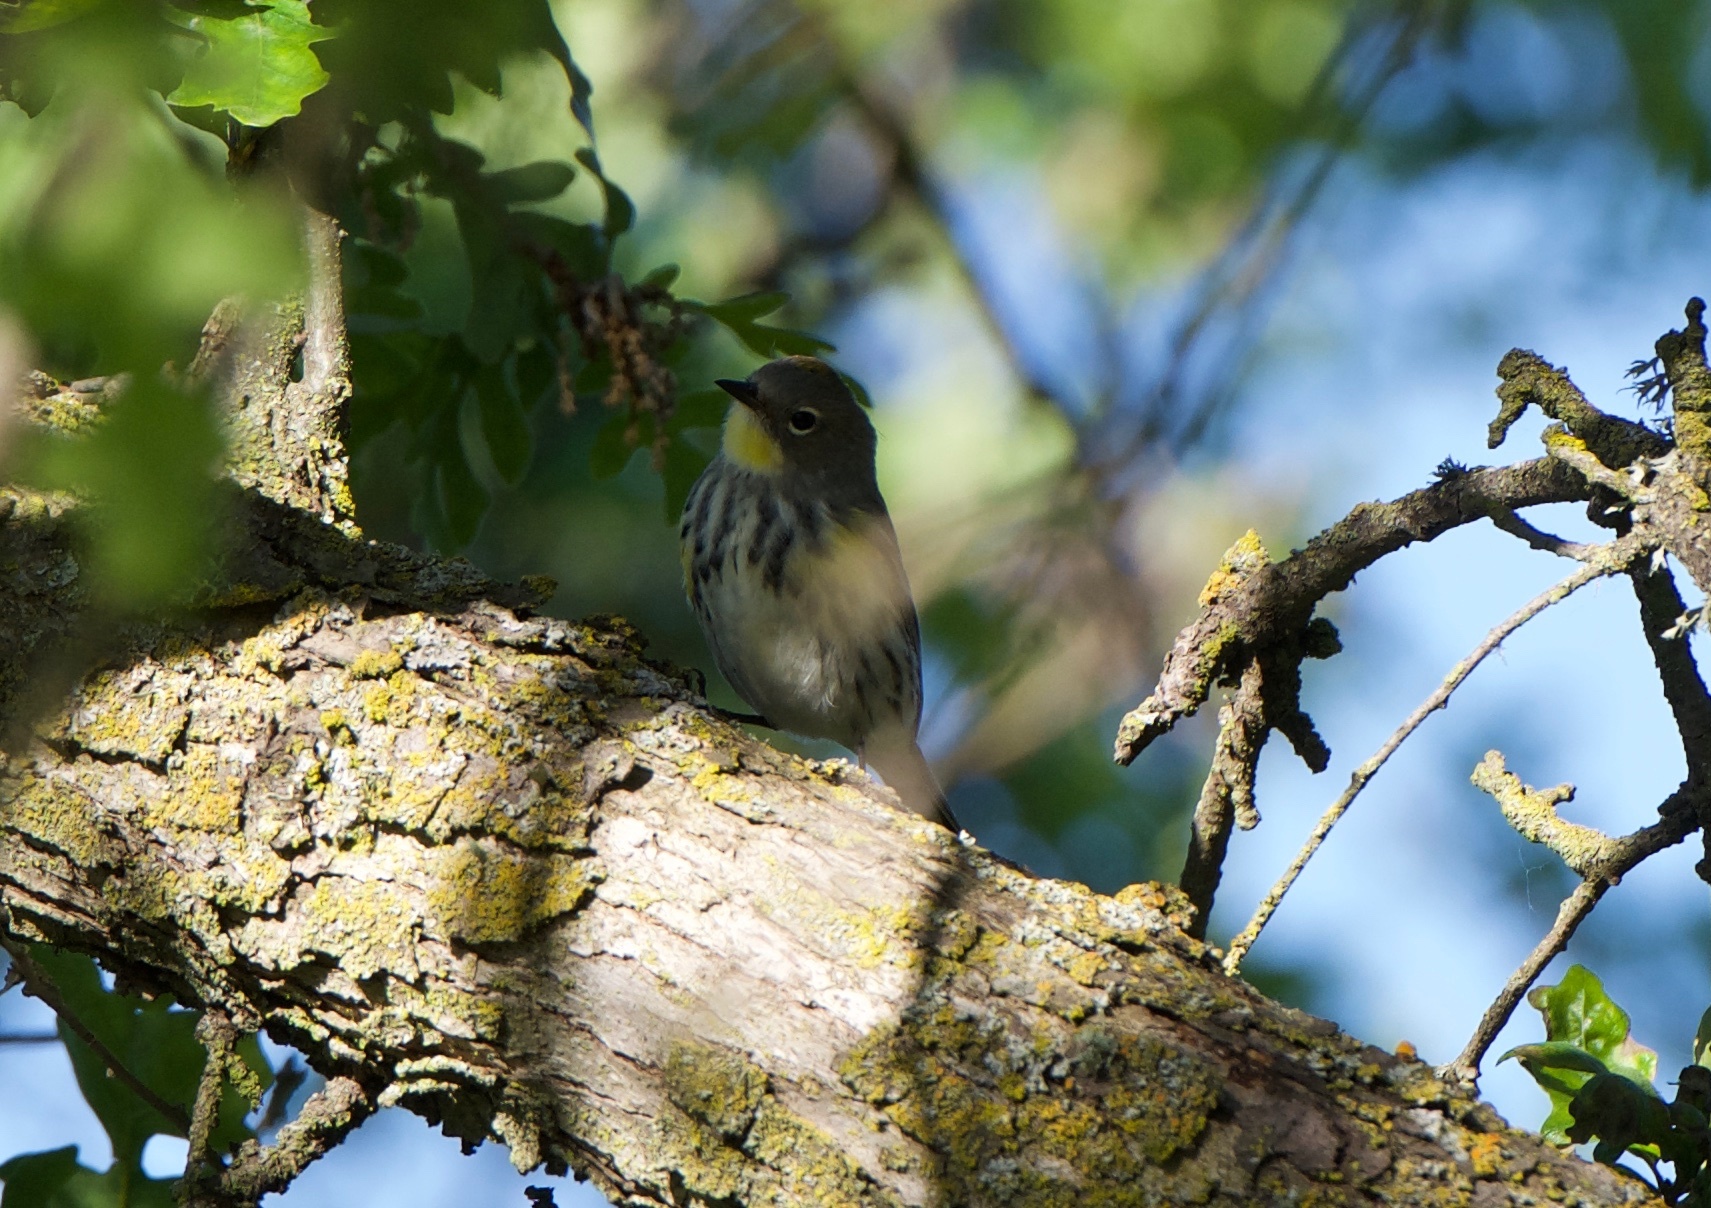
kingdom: Animalia
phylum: Chordata
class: Aves
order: Passeriformes
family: Parulidae
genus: Setophaga
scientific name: Setophaga coronata
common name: Myrtle warbler
